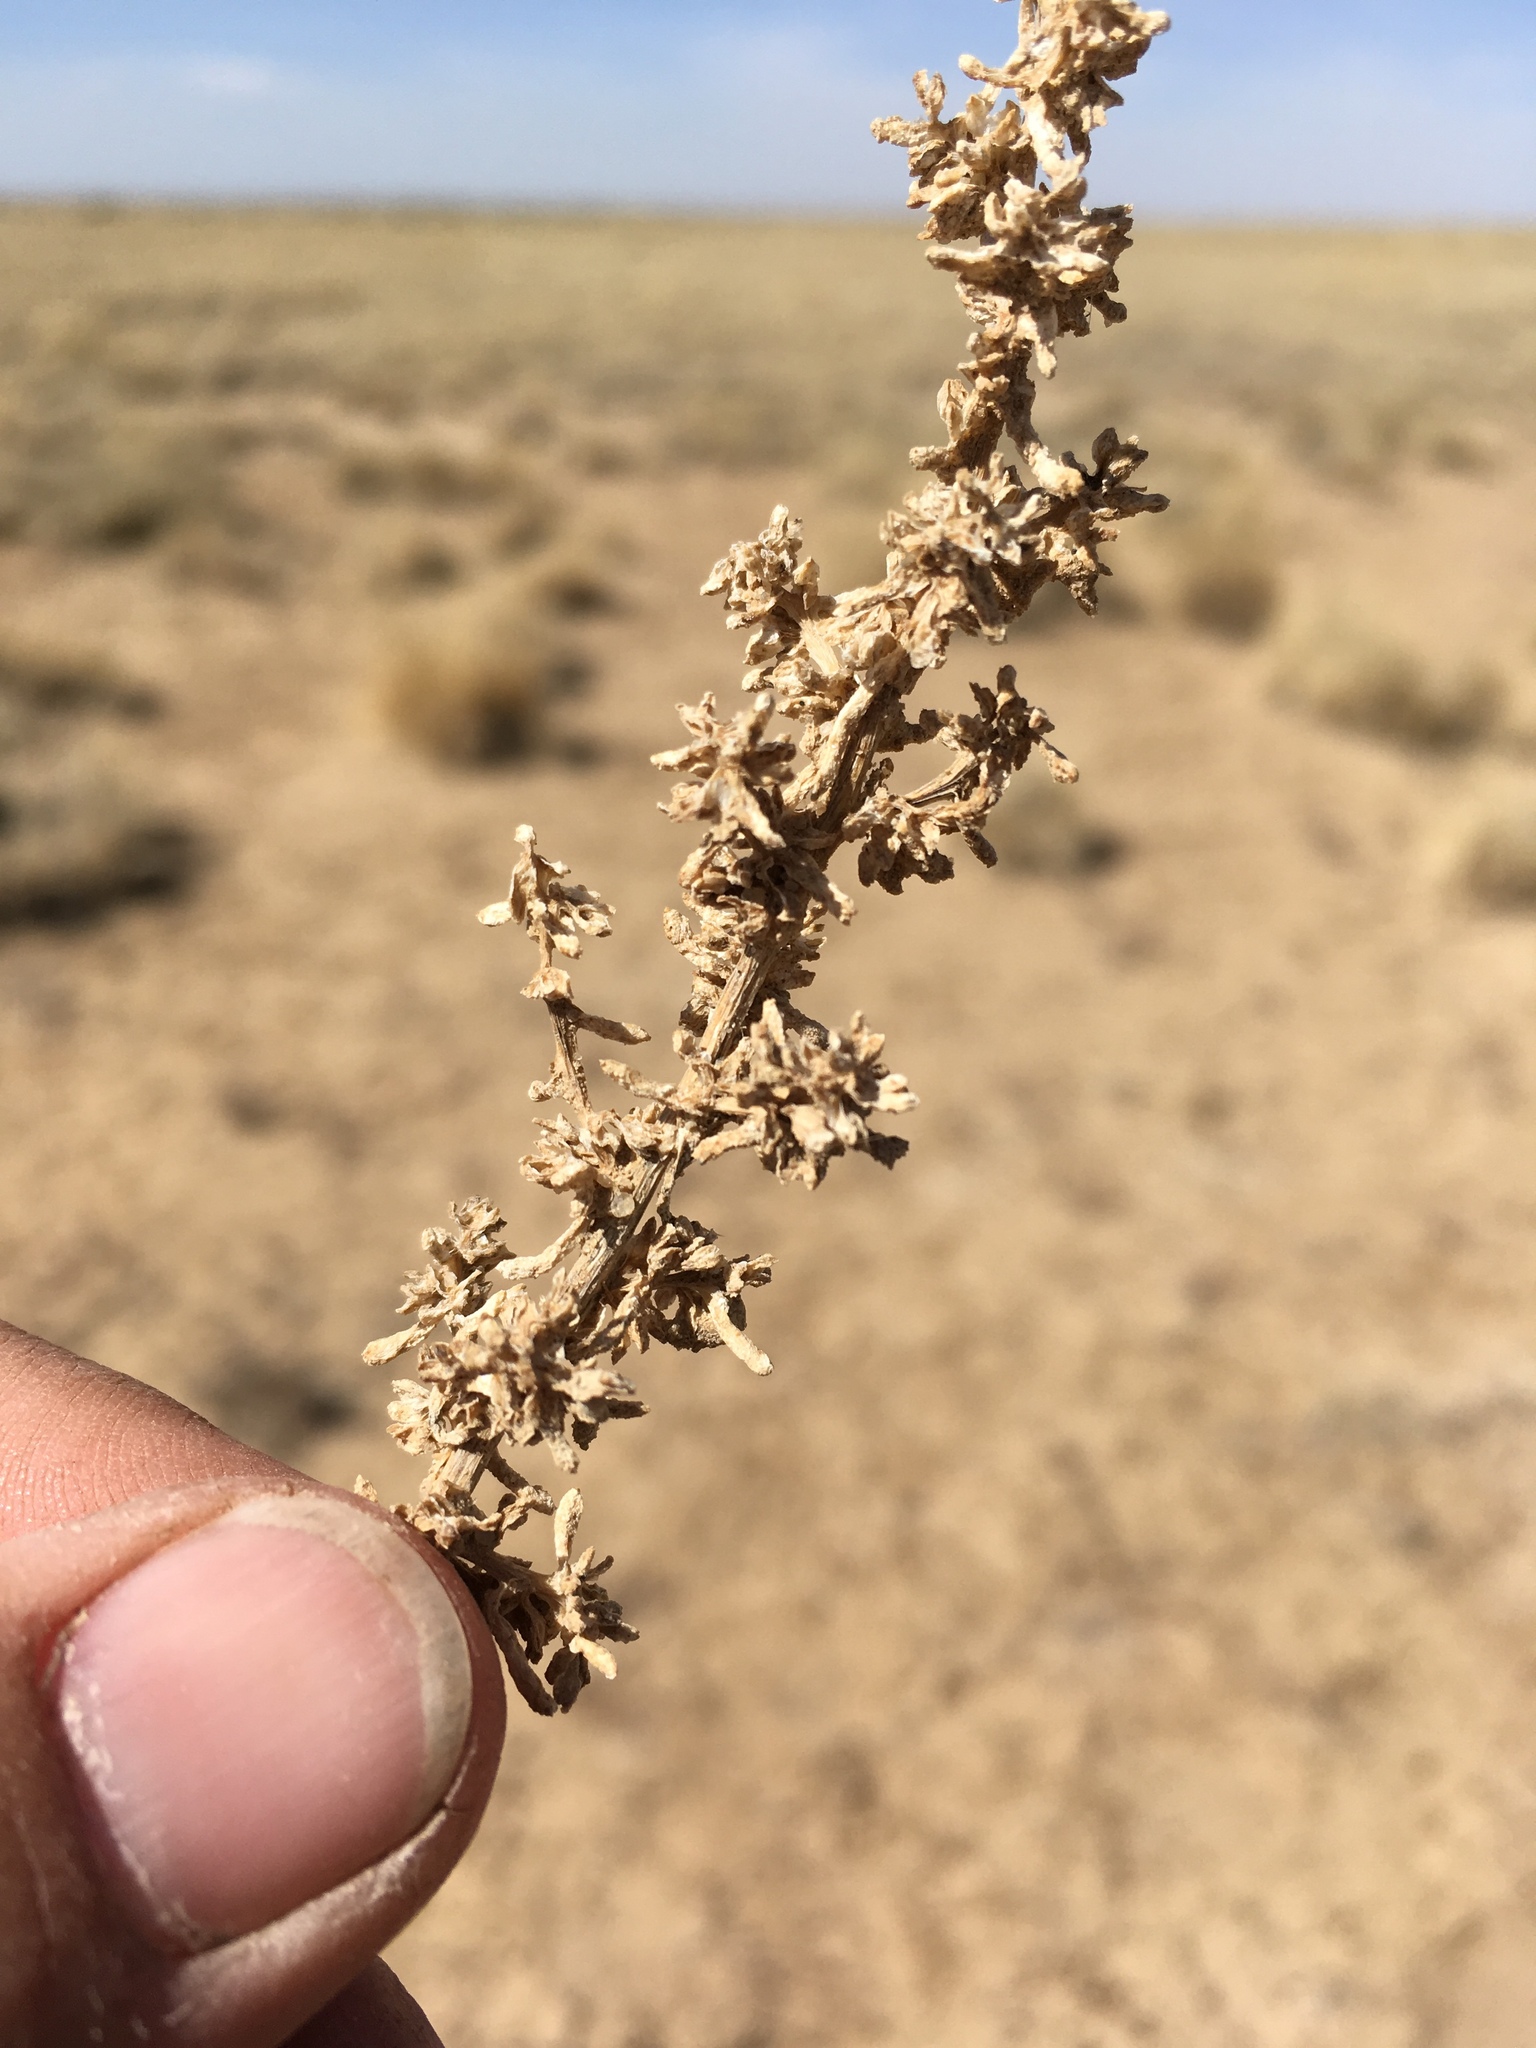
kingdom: Plantae
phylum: Tracheophyta
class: Magnoliopsida
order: Caryophyllales
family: Amaranthaceae
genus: Halogeton
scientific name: Halogeton glomeratus
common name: Saltlover
